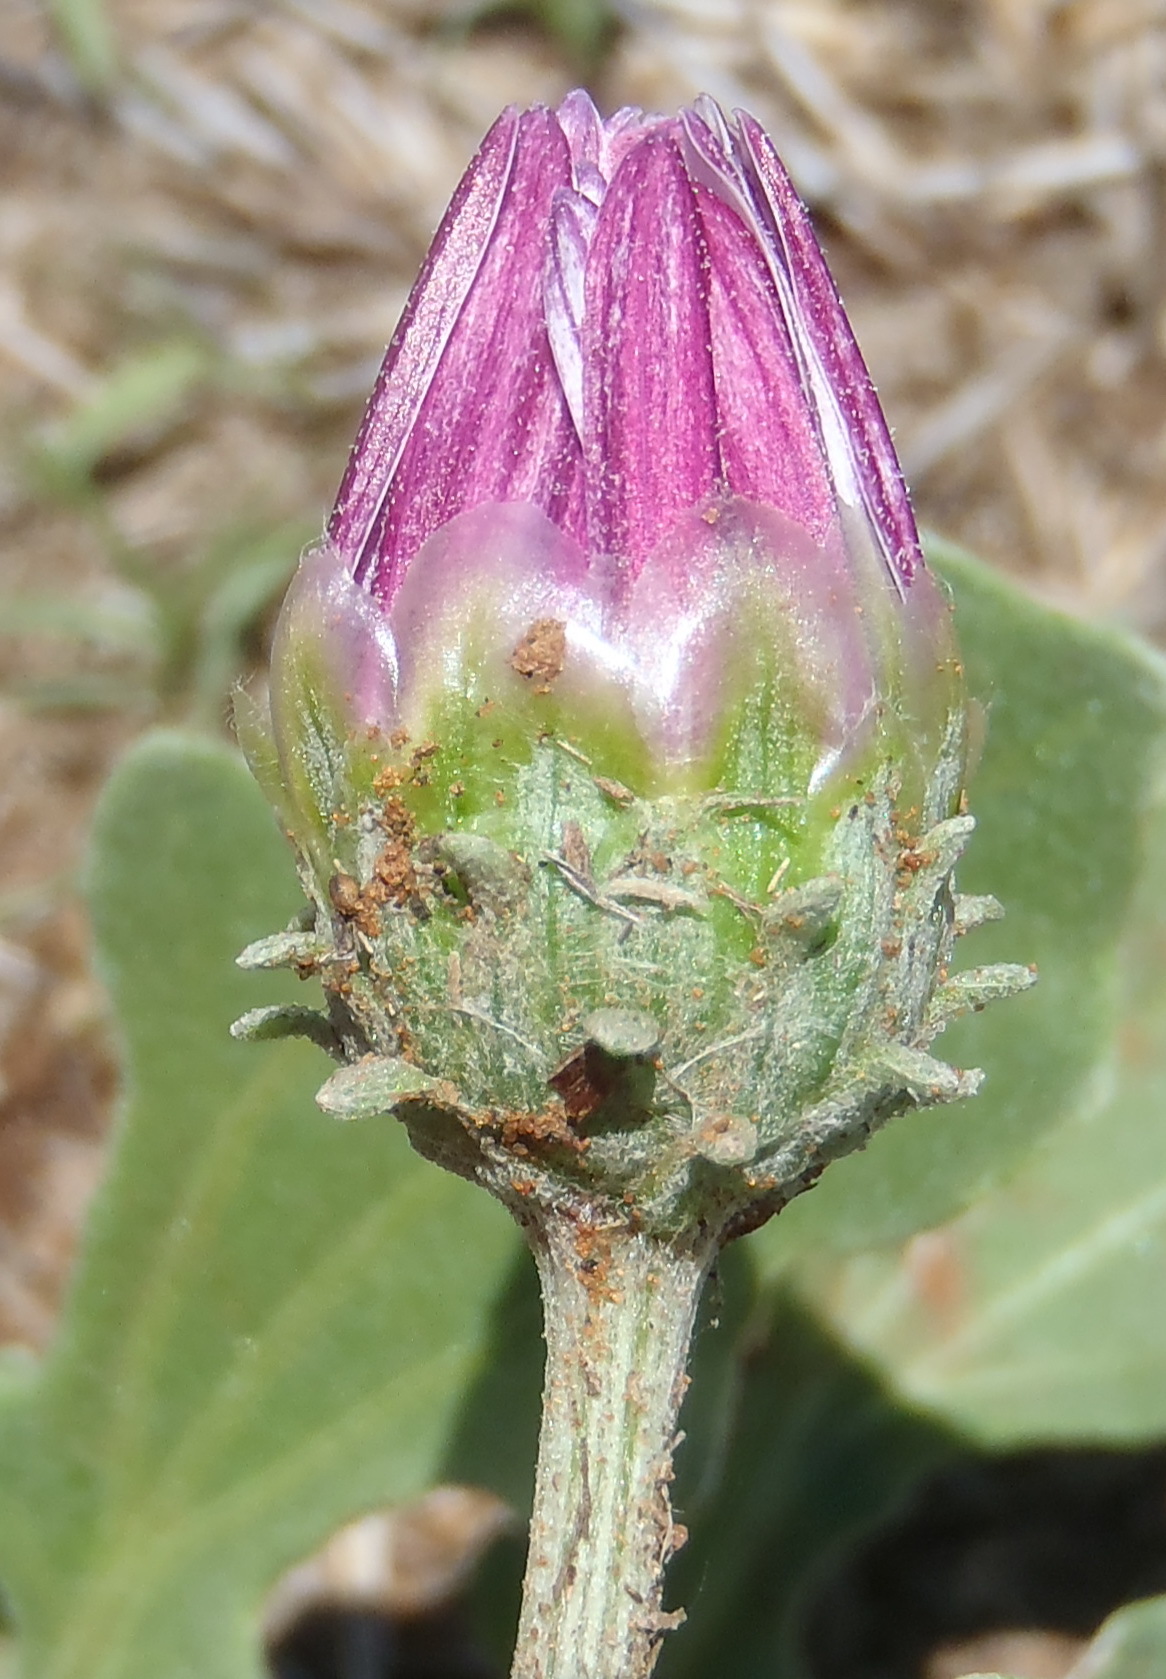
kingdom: Plantae
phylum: Tracheophyta
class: Magnoliopsida
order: Asterales
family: Asteraceae
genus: Arctotis
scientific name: Arctotis venusta
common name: African daisy
